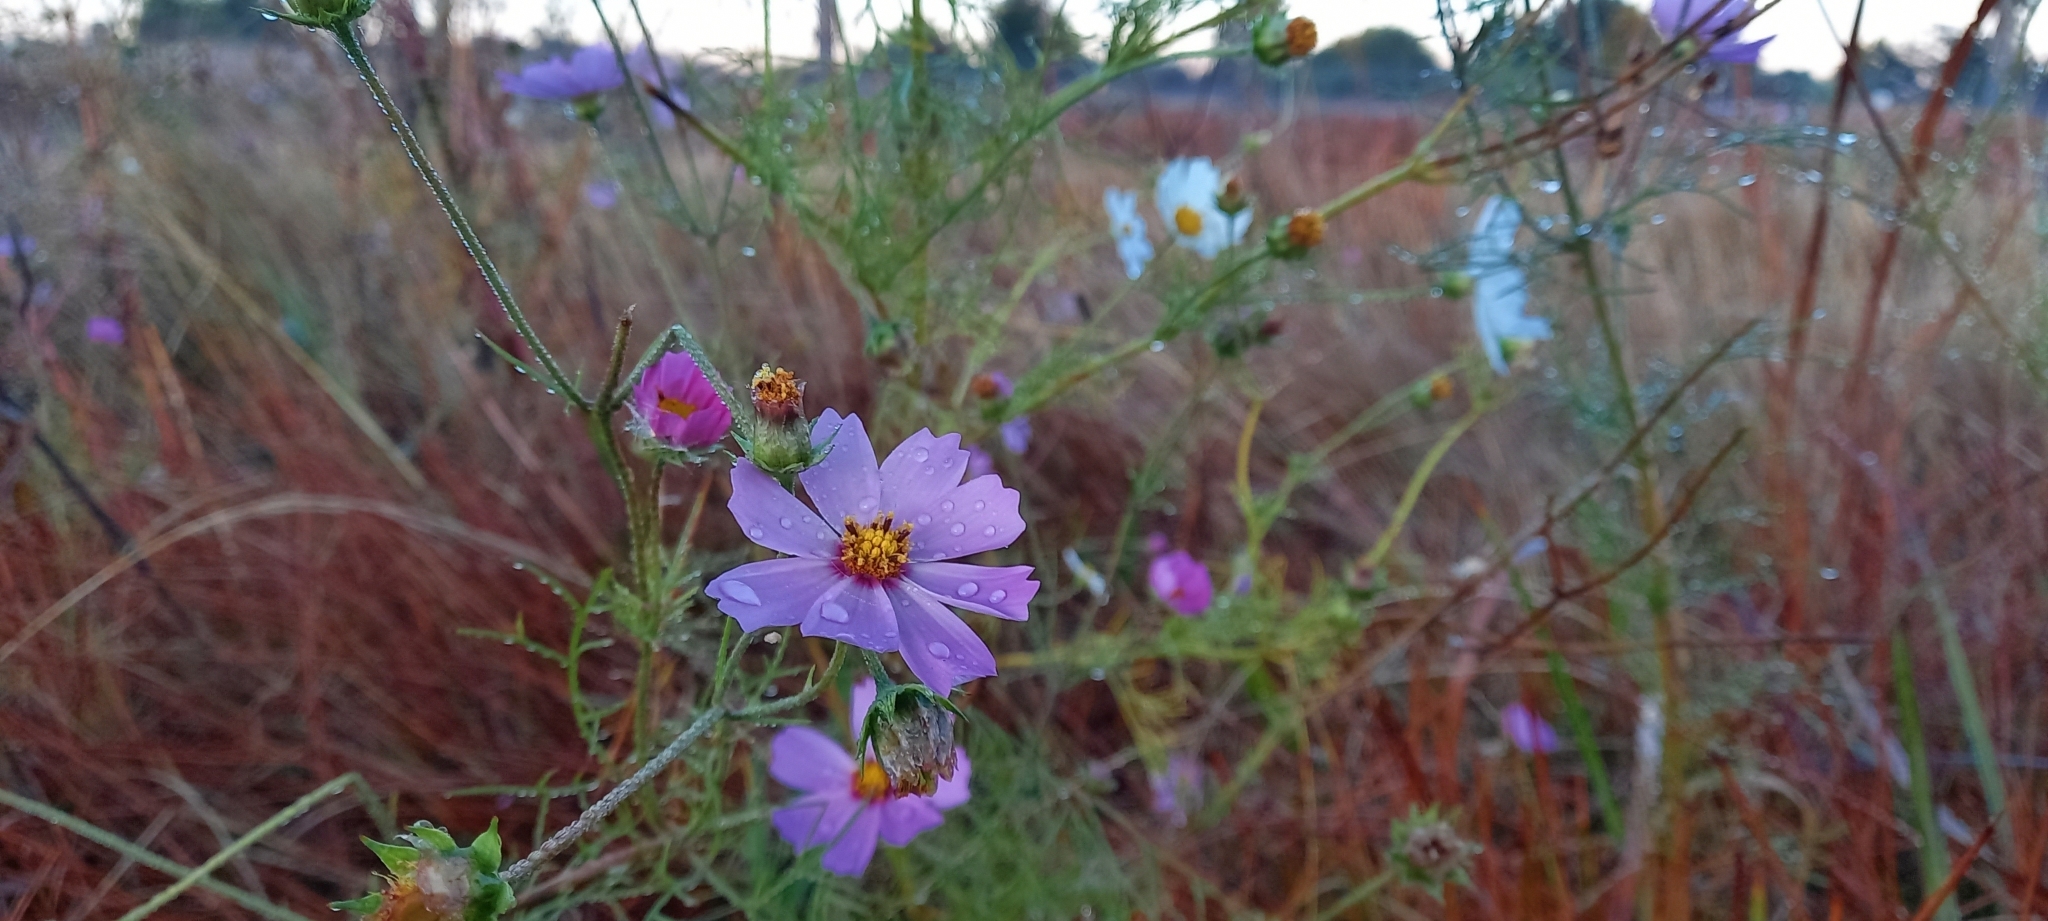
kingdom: Plantae
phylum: Tracheophyta
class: Magnoliopsida
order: Asterales
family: Asteraceae
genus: Cosmos
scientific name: Cosmos bipinnatus
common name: Garden cosmos
